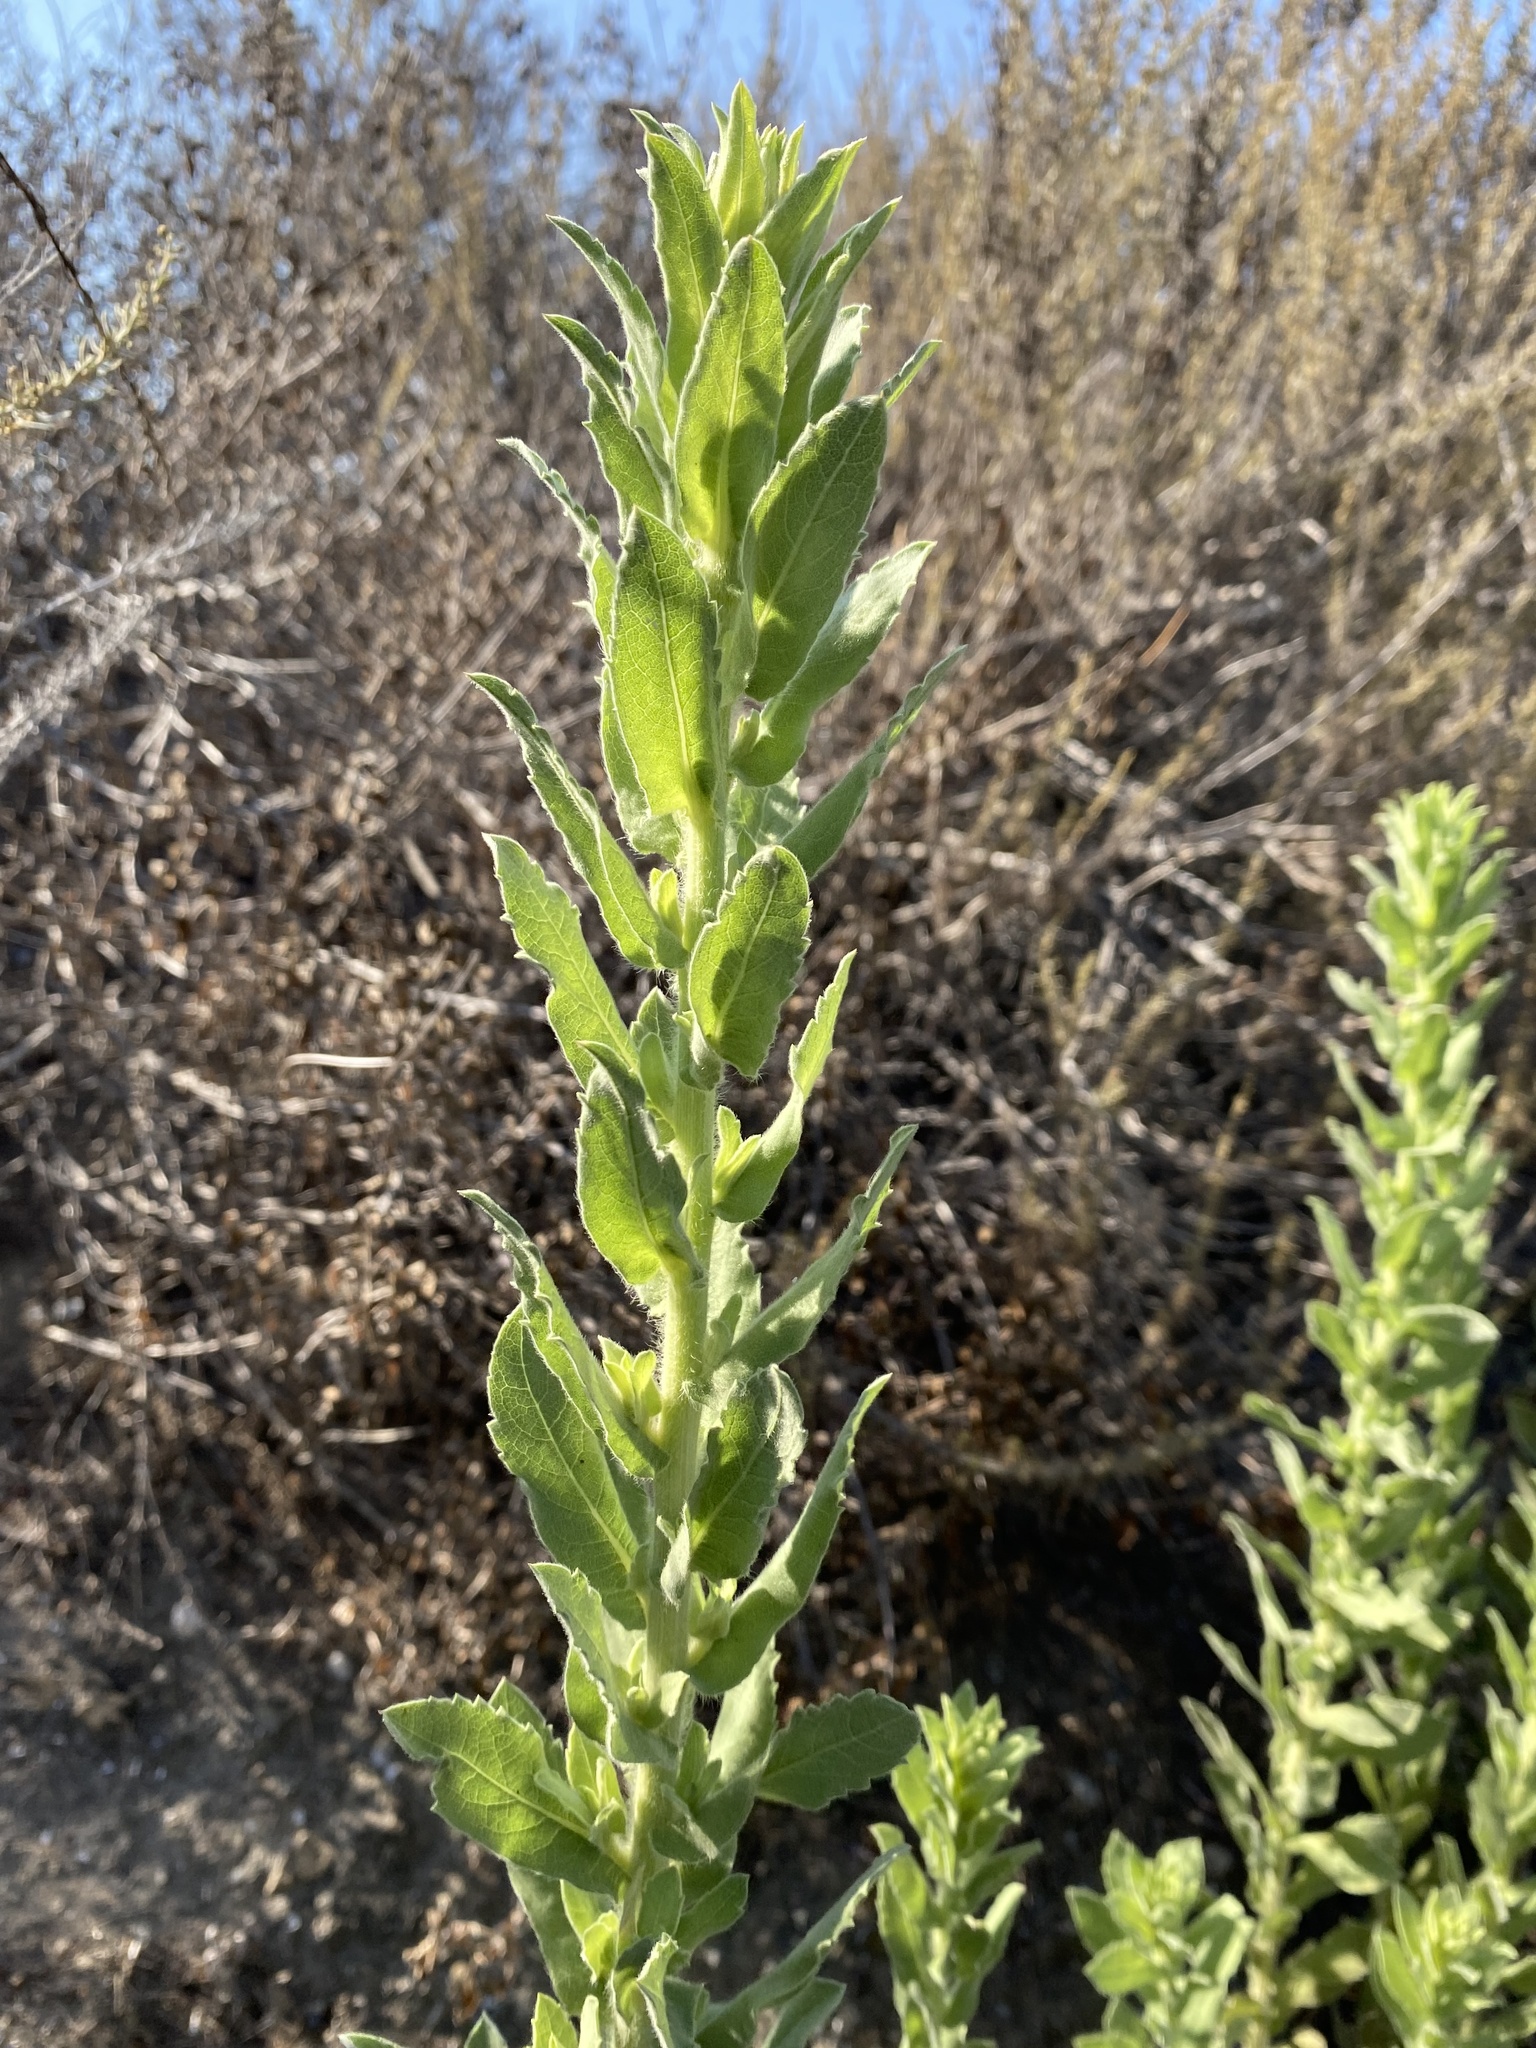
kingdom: Plantae
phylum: Tracheophyta
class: Magnoliopsida
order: Asterales
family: Asteraceae
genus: Heterotheca
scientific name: Heterotheca grandiflora
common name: Telegraphweed
